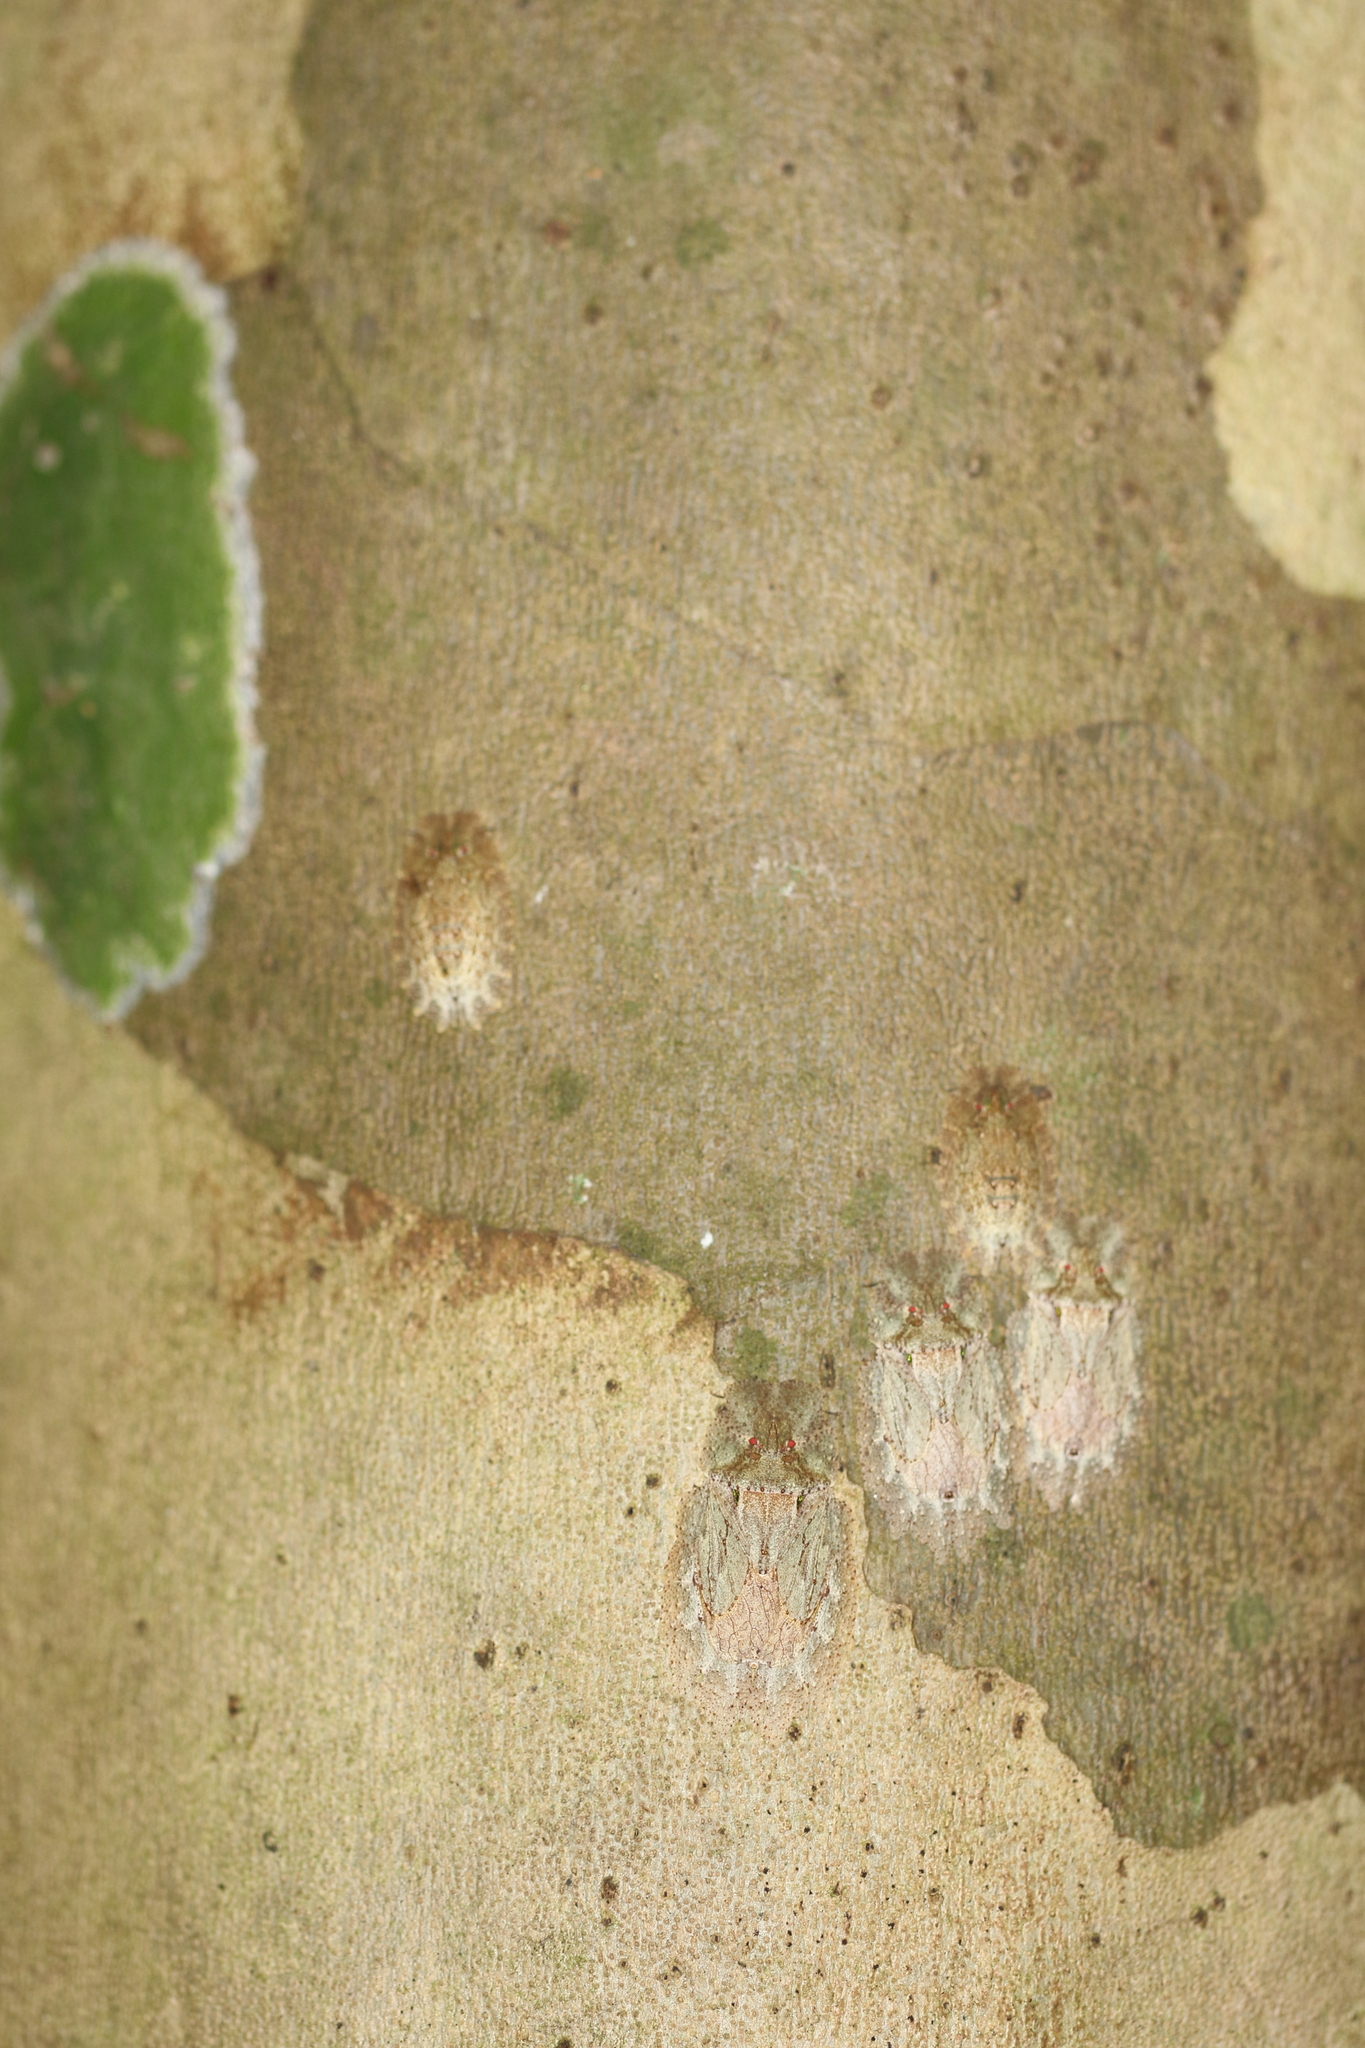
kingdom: Animalia
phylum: Arthropoda
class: Insecta
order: Hemiptera
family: Phleides
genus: Phloea
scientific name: Phloea
